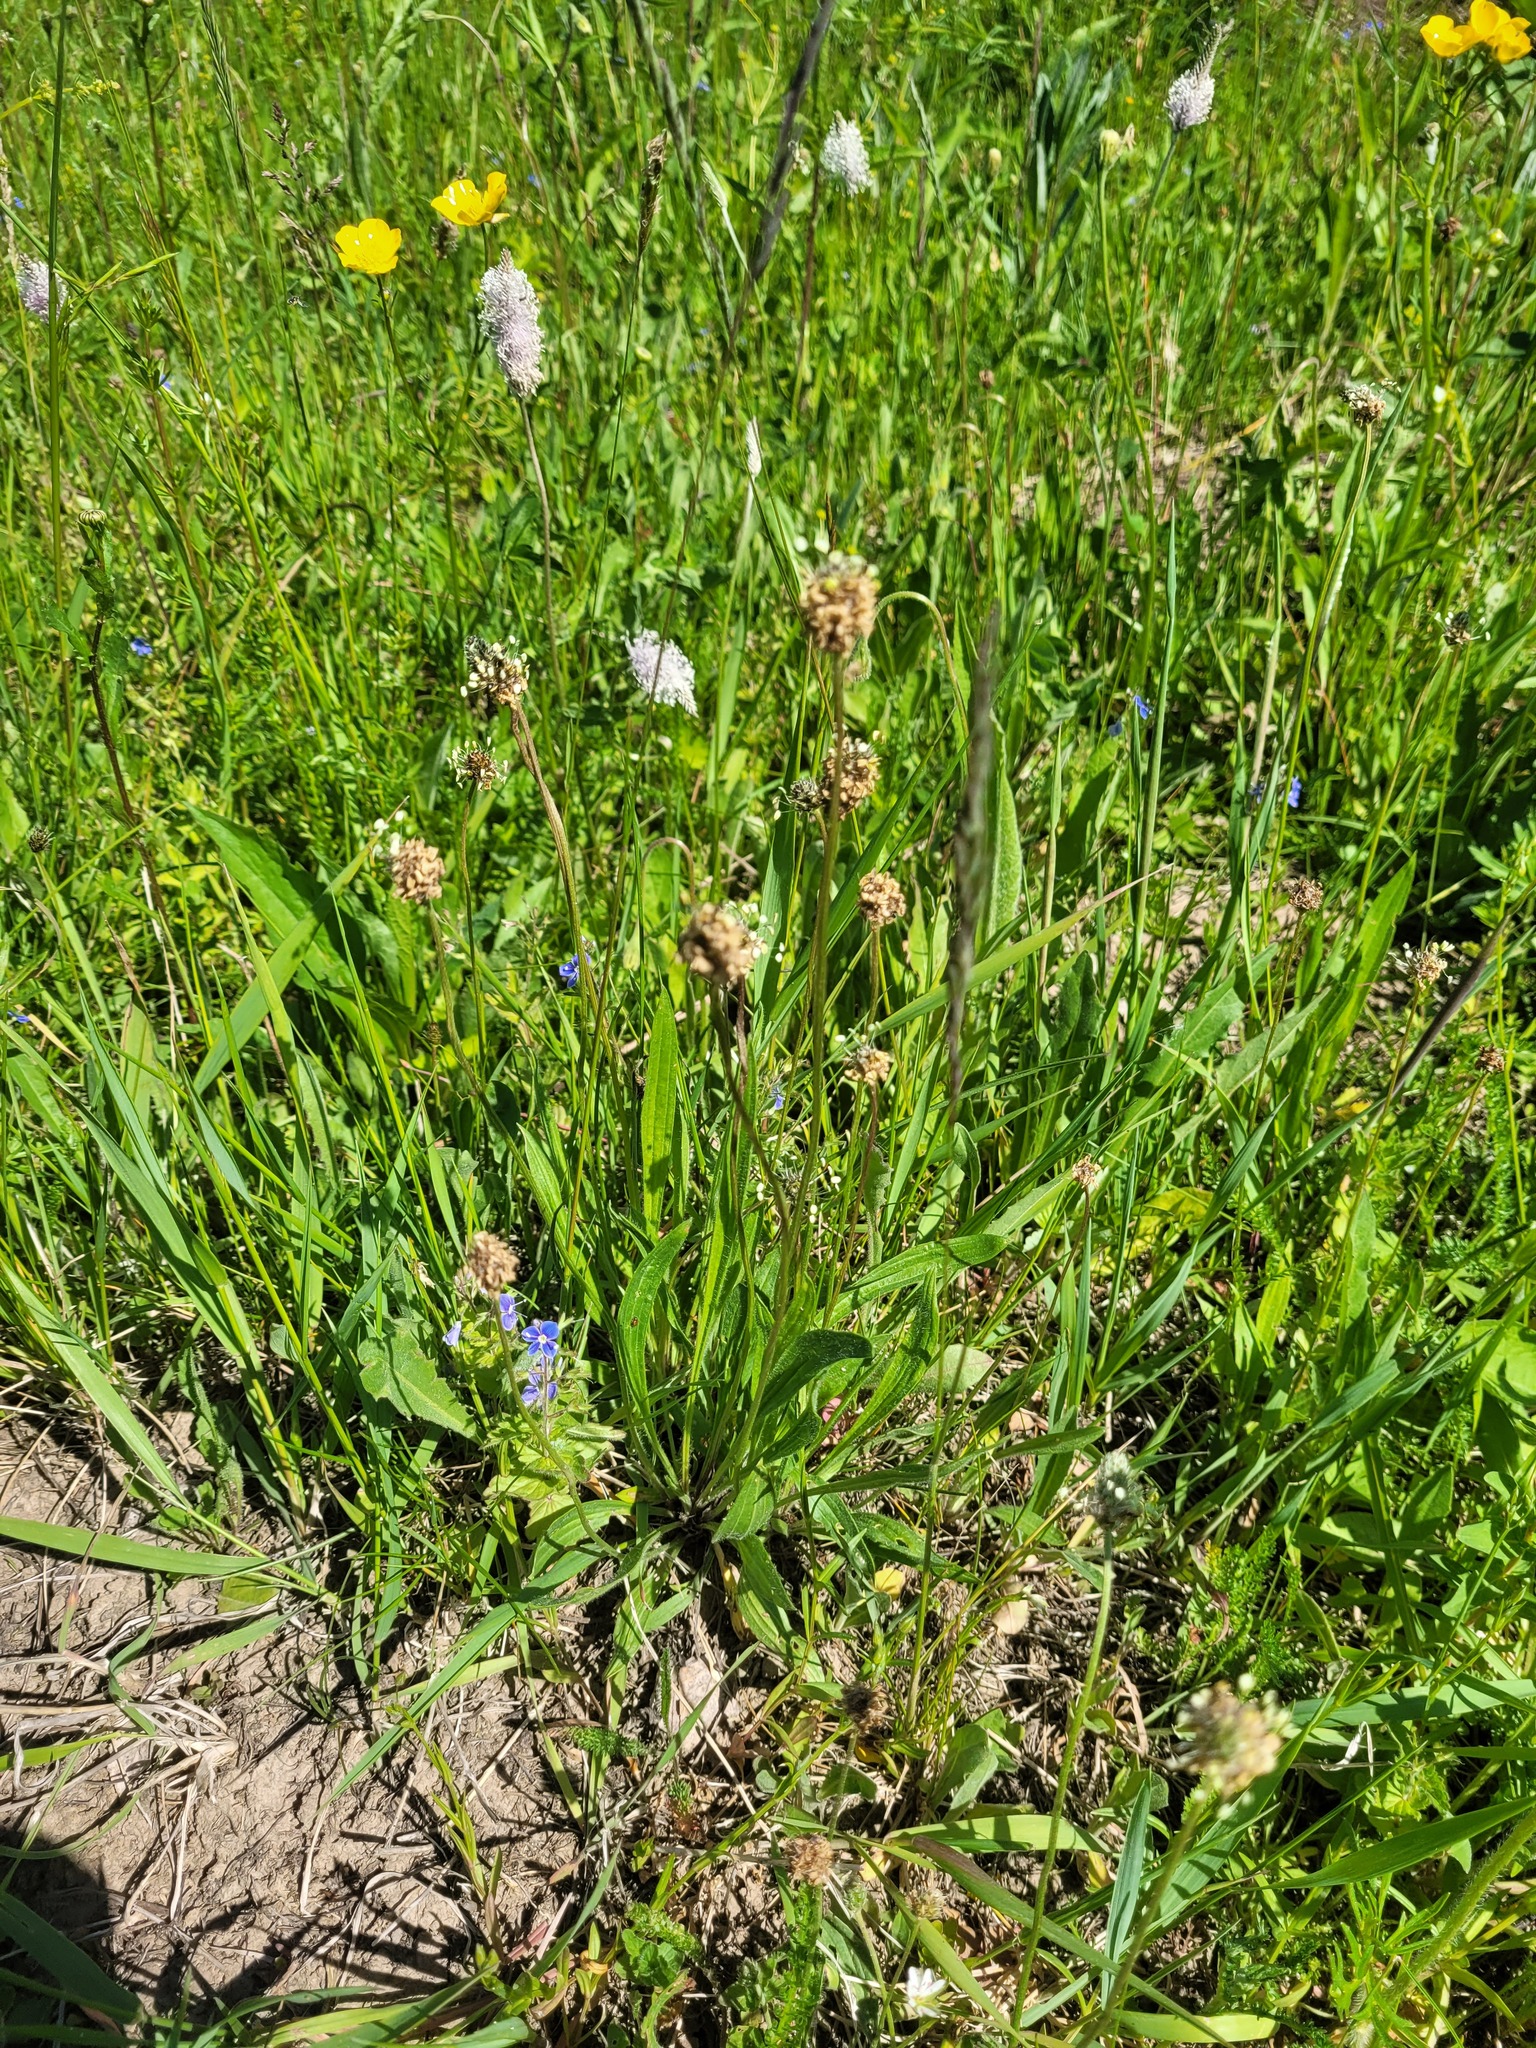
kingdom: Plantae
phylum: Tracheophyta
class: Magnoliopsida
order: Lamiales
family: Plantaginaceae
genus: Plantago
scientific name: Plantago lanceolata
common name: Ribwort plantain
